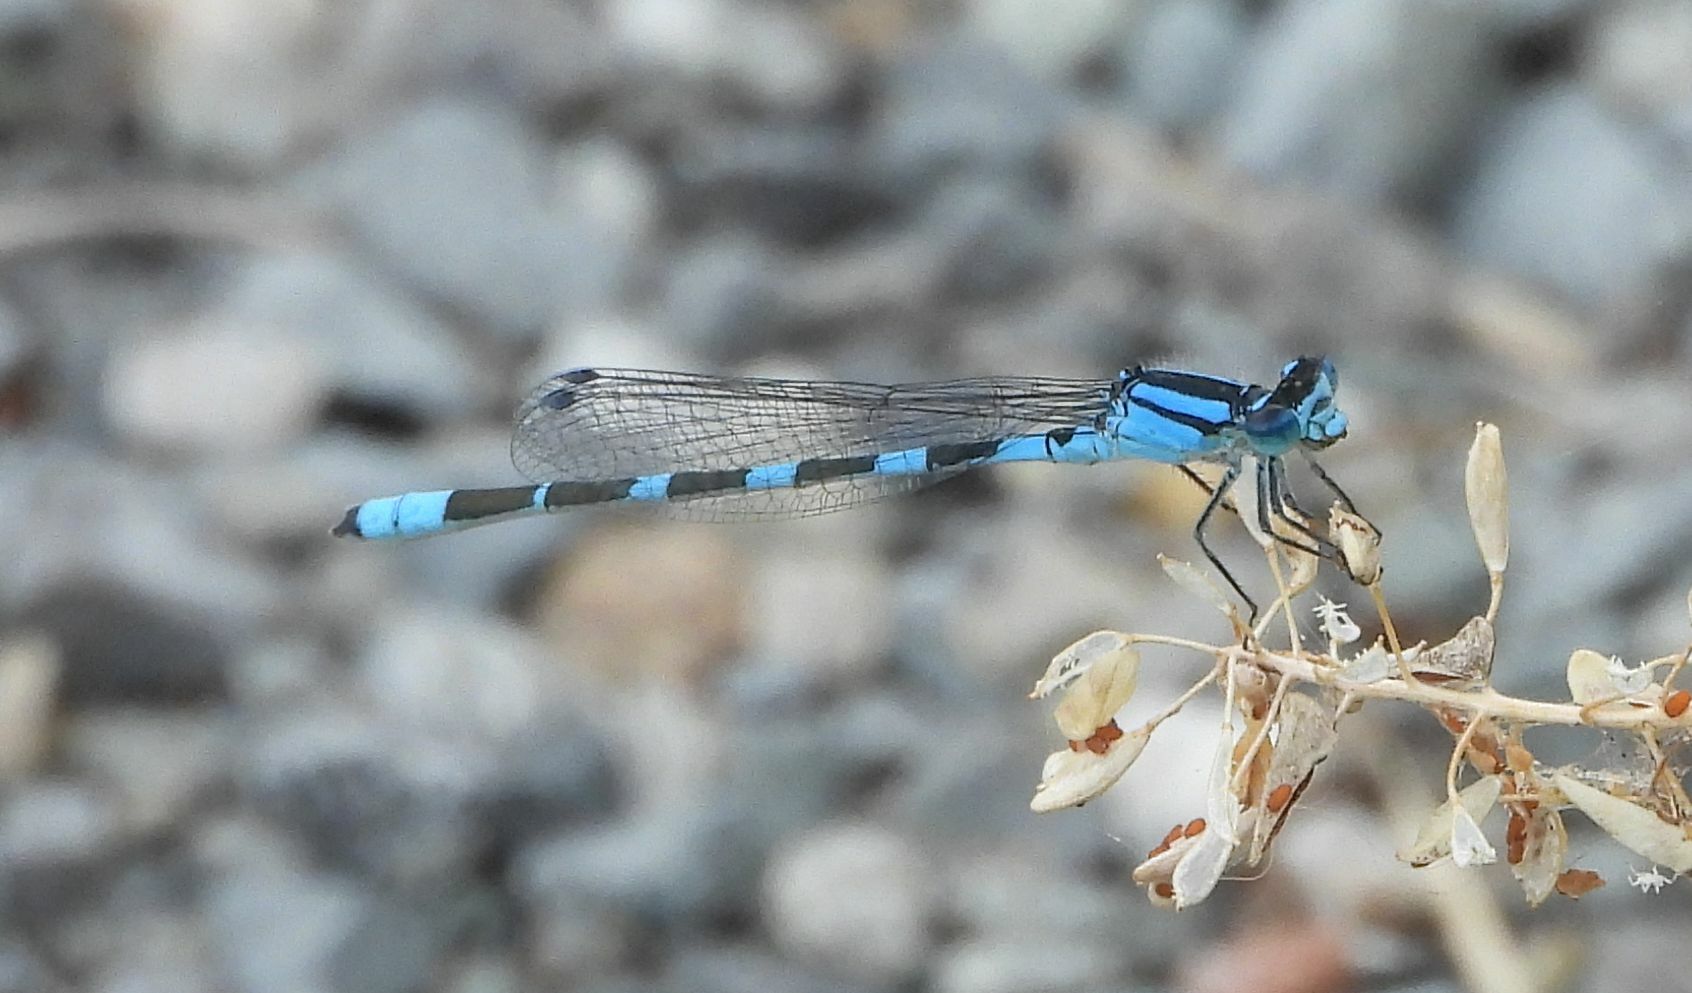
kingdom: Animalia
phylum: Arthropoda
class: Insecta
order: Odonata
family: Coenagrionidae
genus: Enallagma
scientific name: Enallagma carunculatum
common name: Tule bluet
